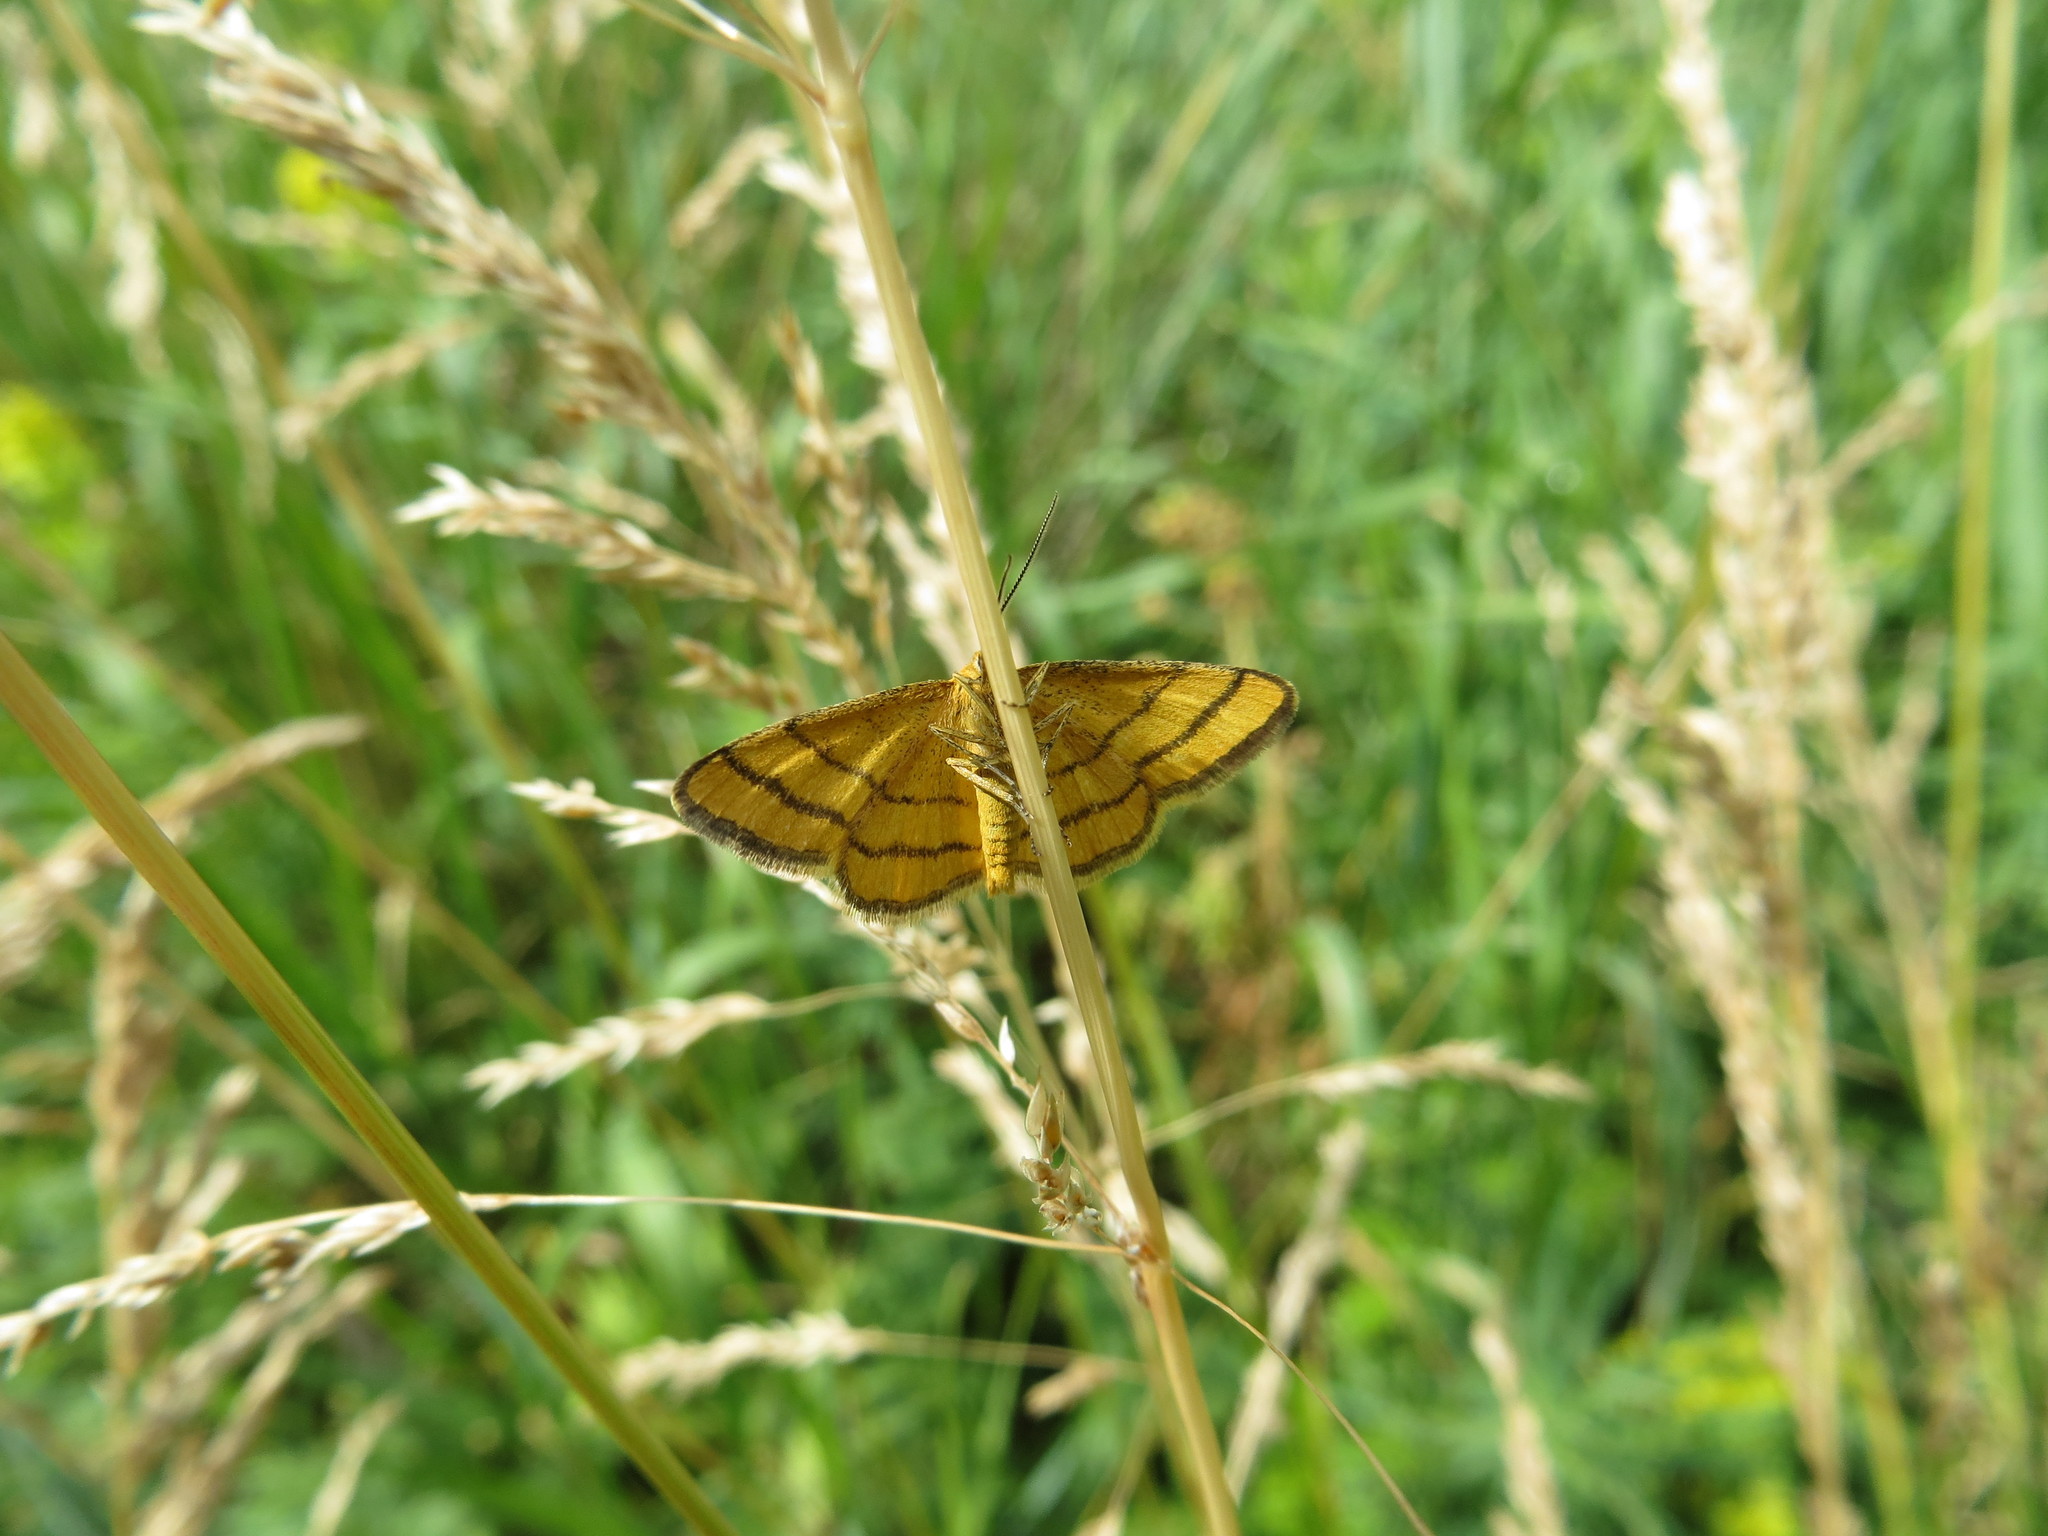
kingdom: Animalia
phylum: Arthropoda
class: Insecta
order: Lepidoptera
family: Geometridae
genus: Idaea
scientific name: Idaea aureolaria
